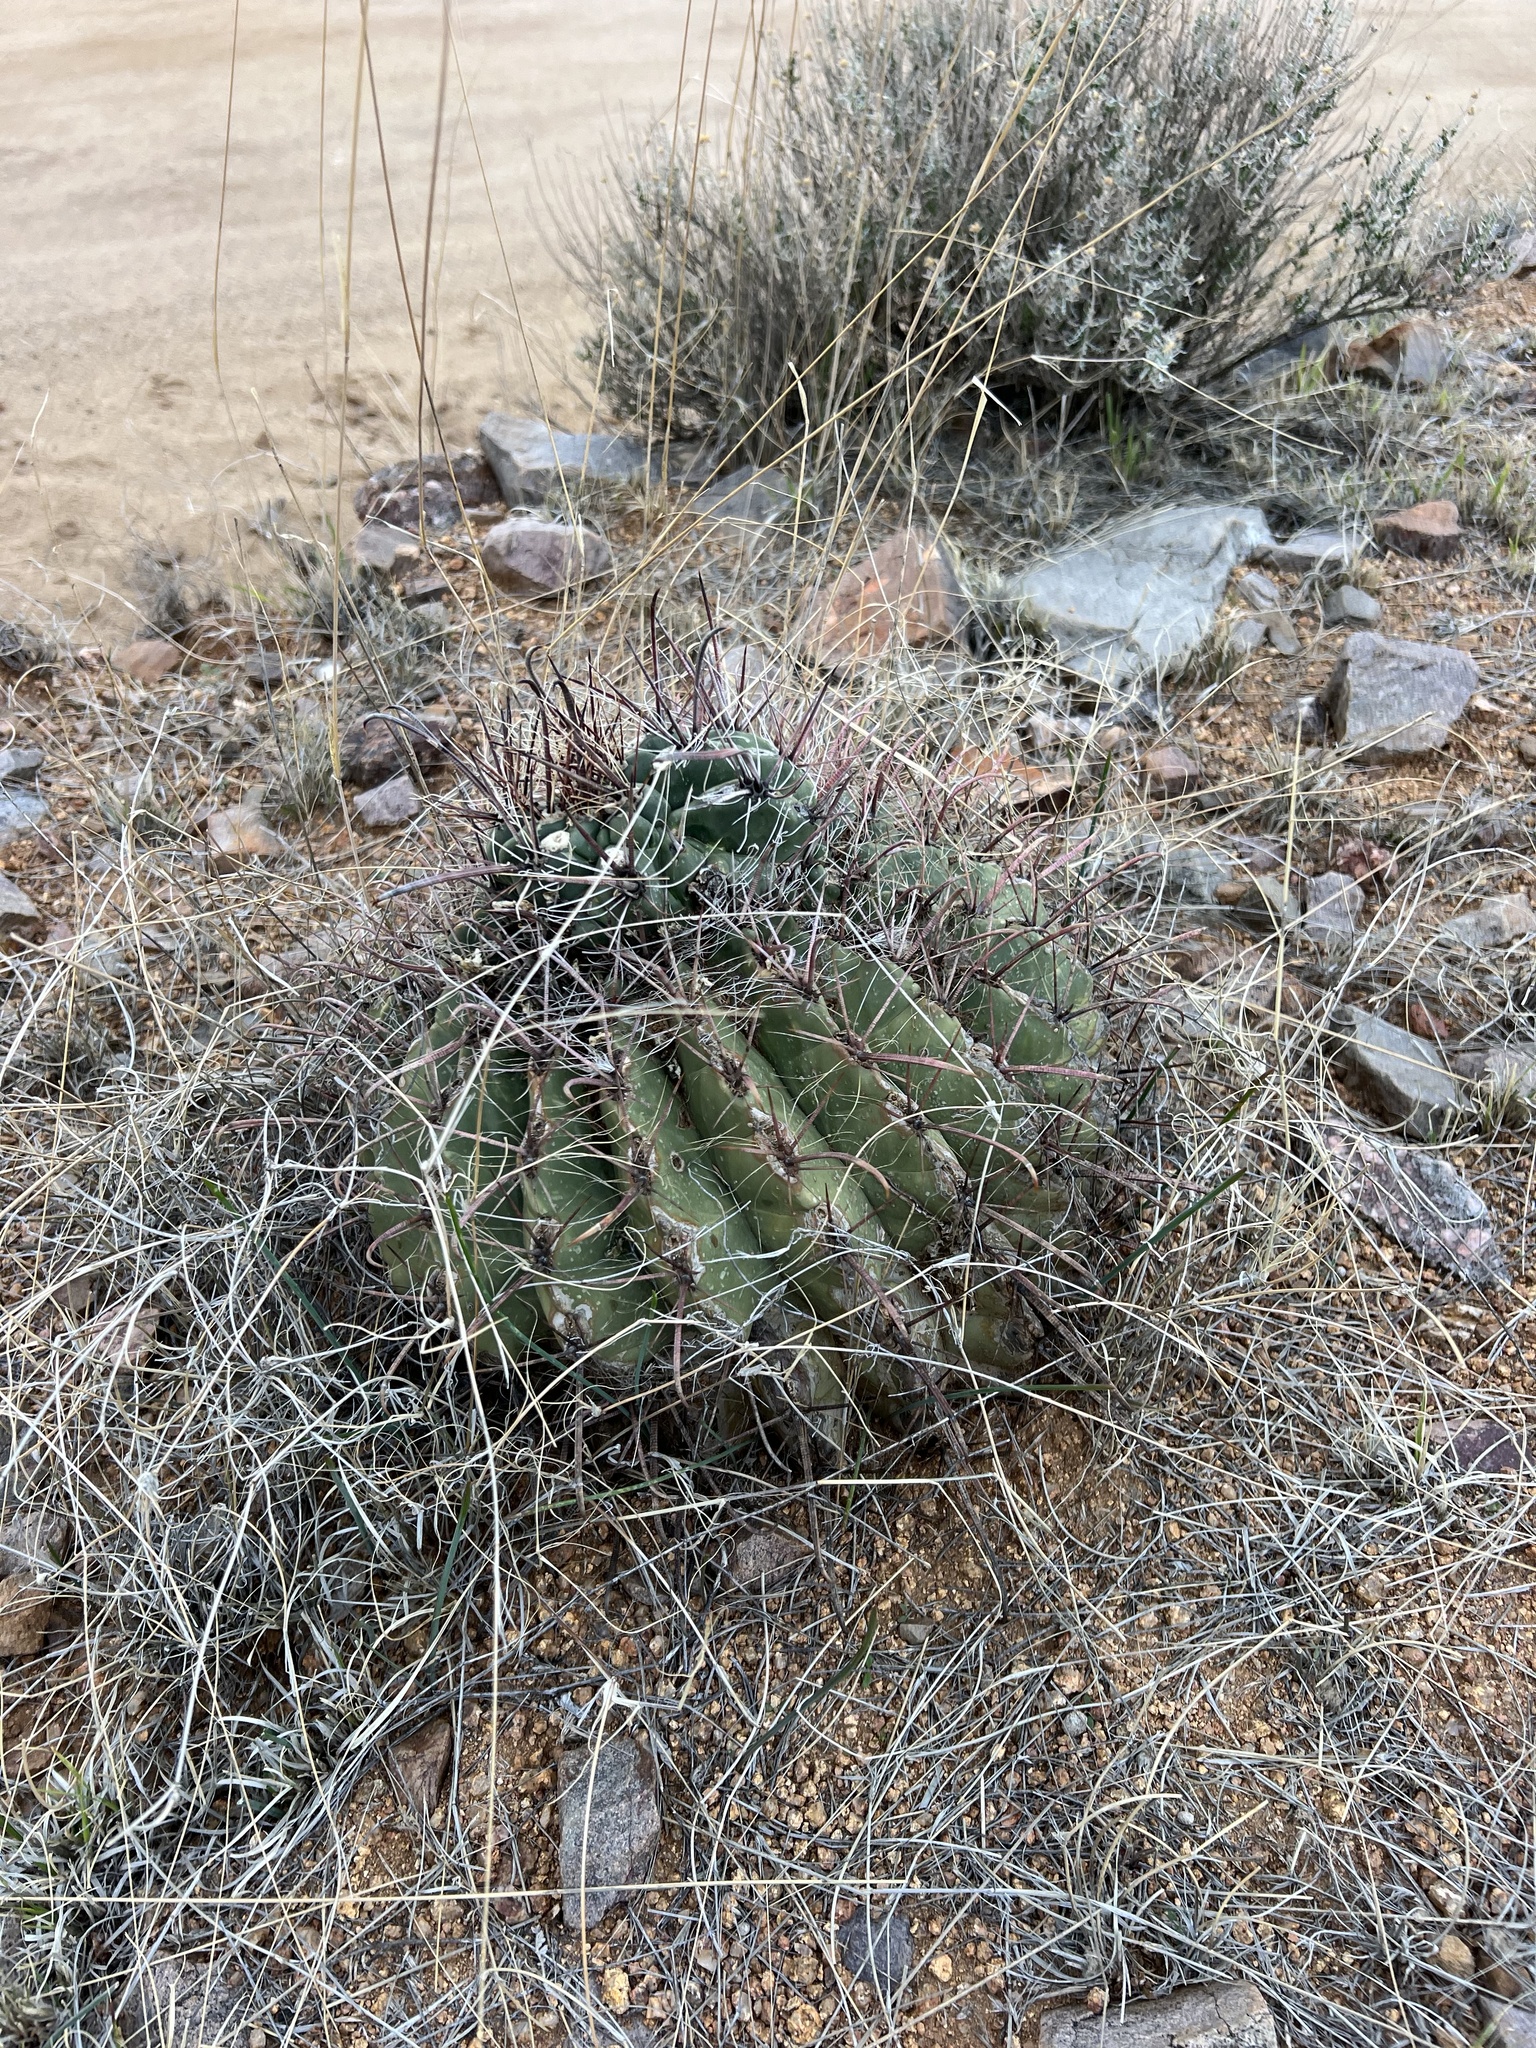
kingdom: Plantae
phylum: Tracheophyta
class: Magnoliopsida
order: Caryophyllales
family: Cactaceae
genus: Ferocactus
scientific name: Ferocactus wislizeni
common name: Candy barrel cactus
